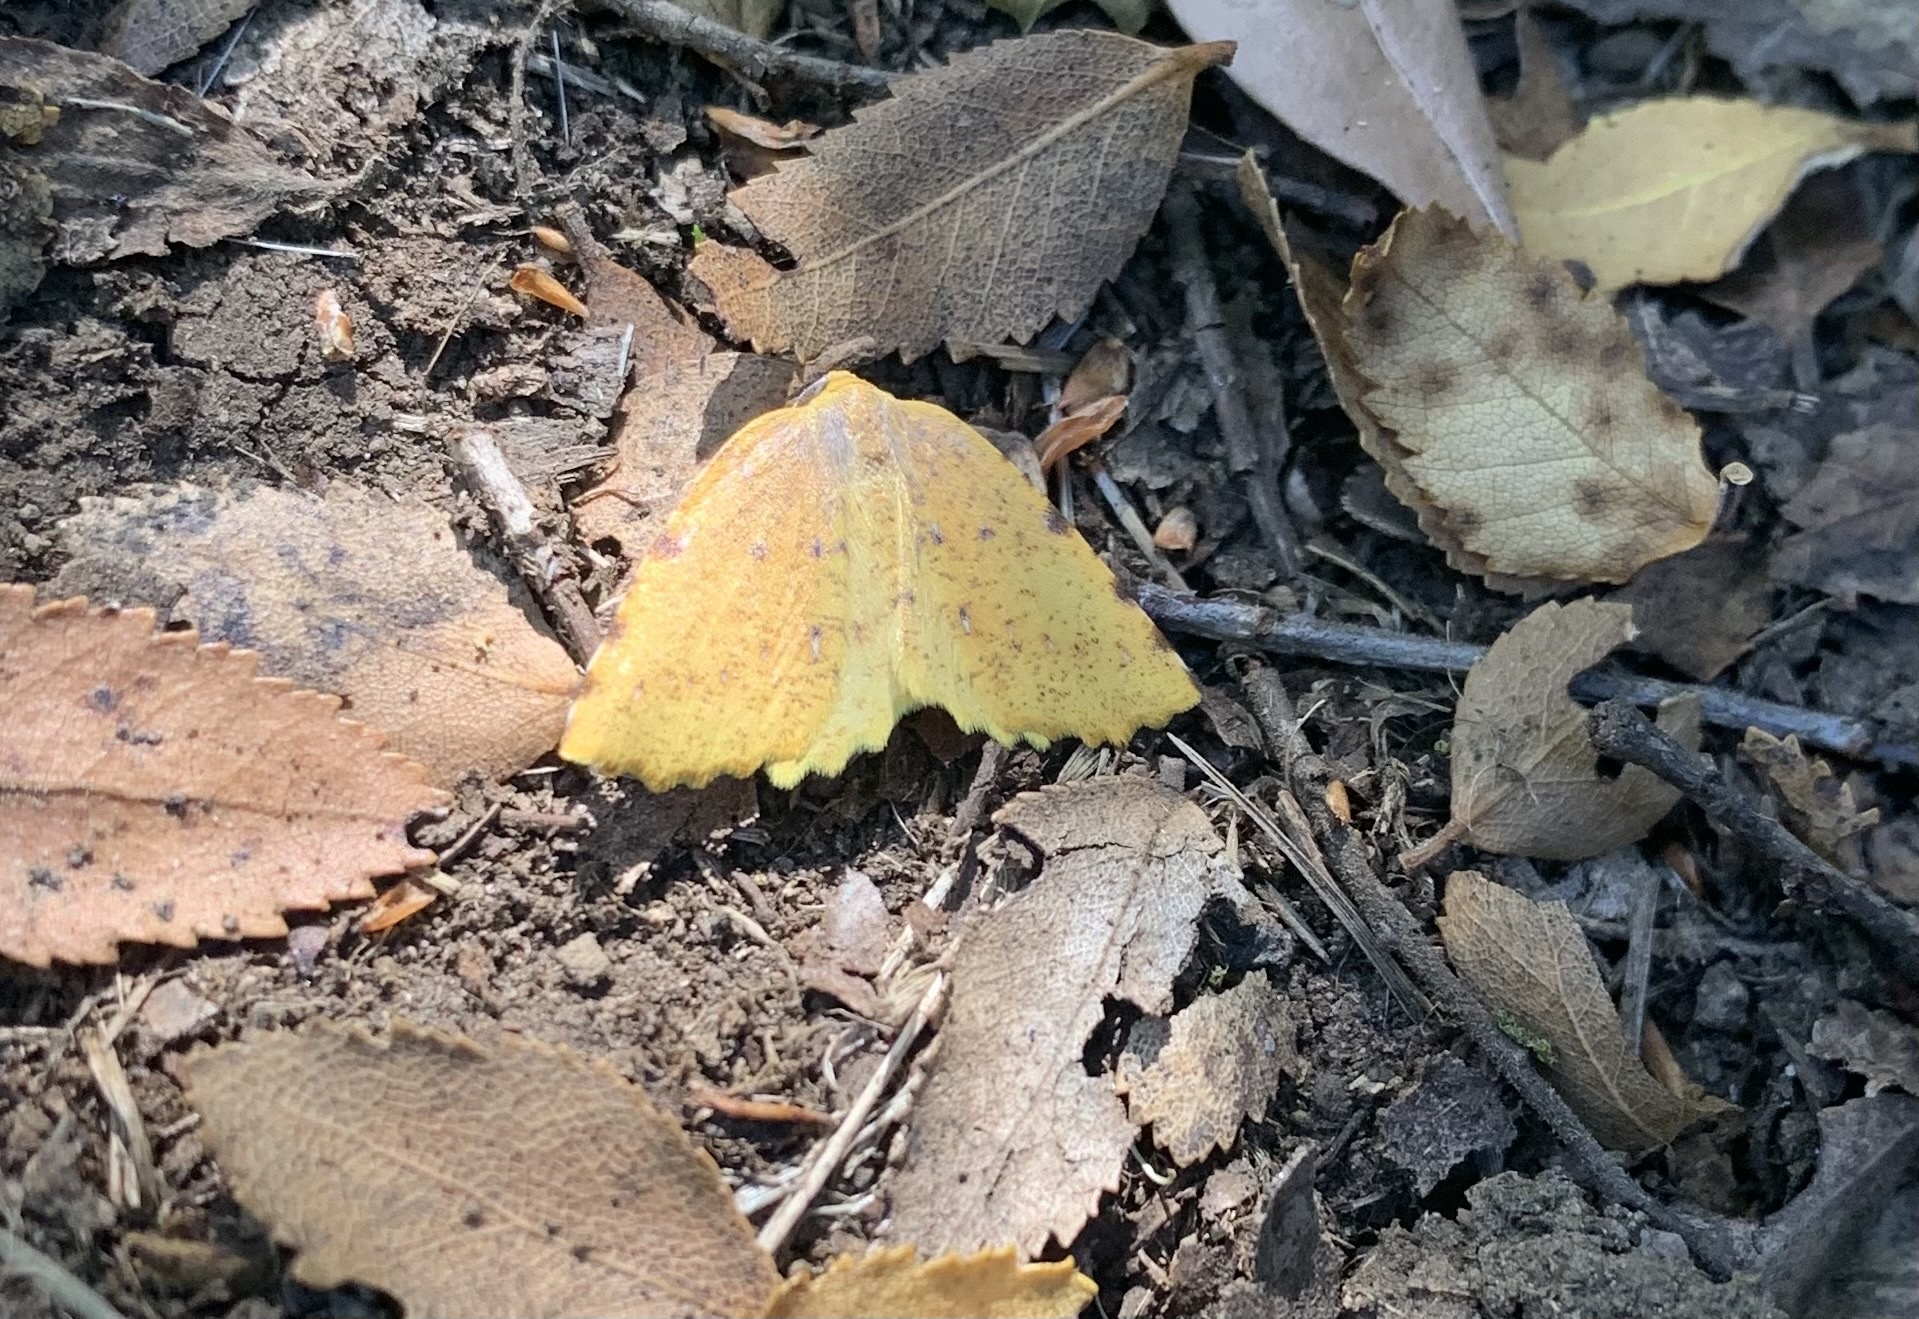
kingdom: Animalia
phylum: Arthropoda
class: Insecta
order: Lepidoptera
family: Geometridae
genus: Neorumia
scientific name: Neorumia lutea
